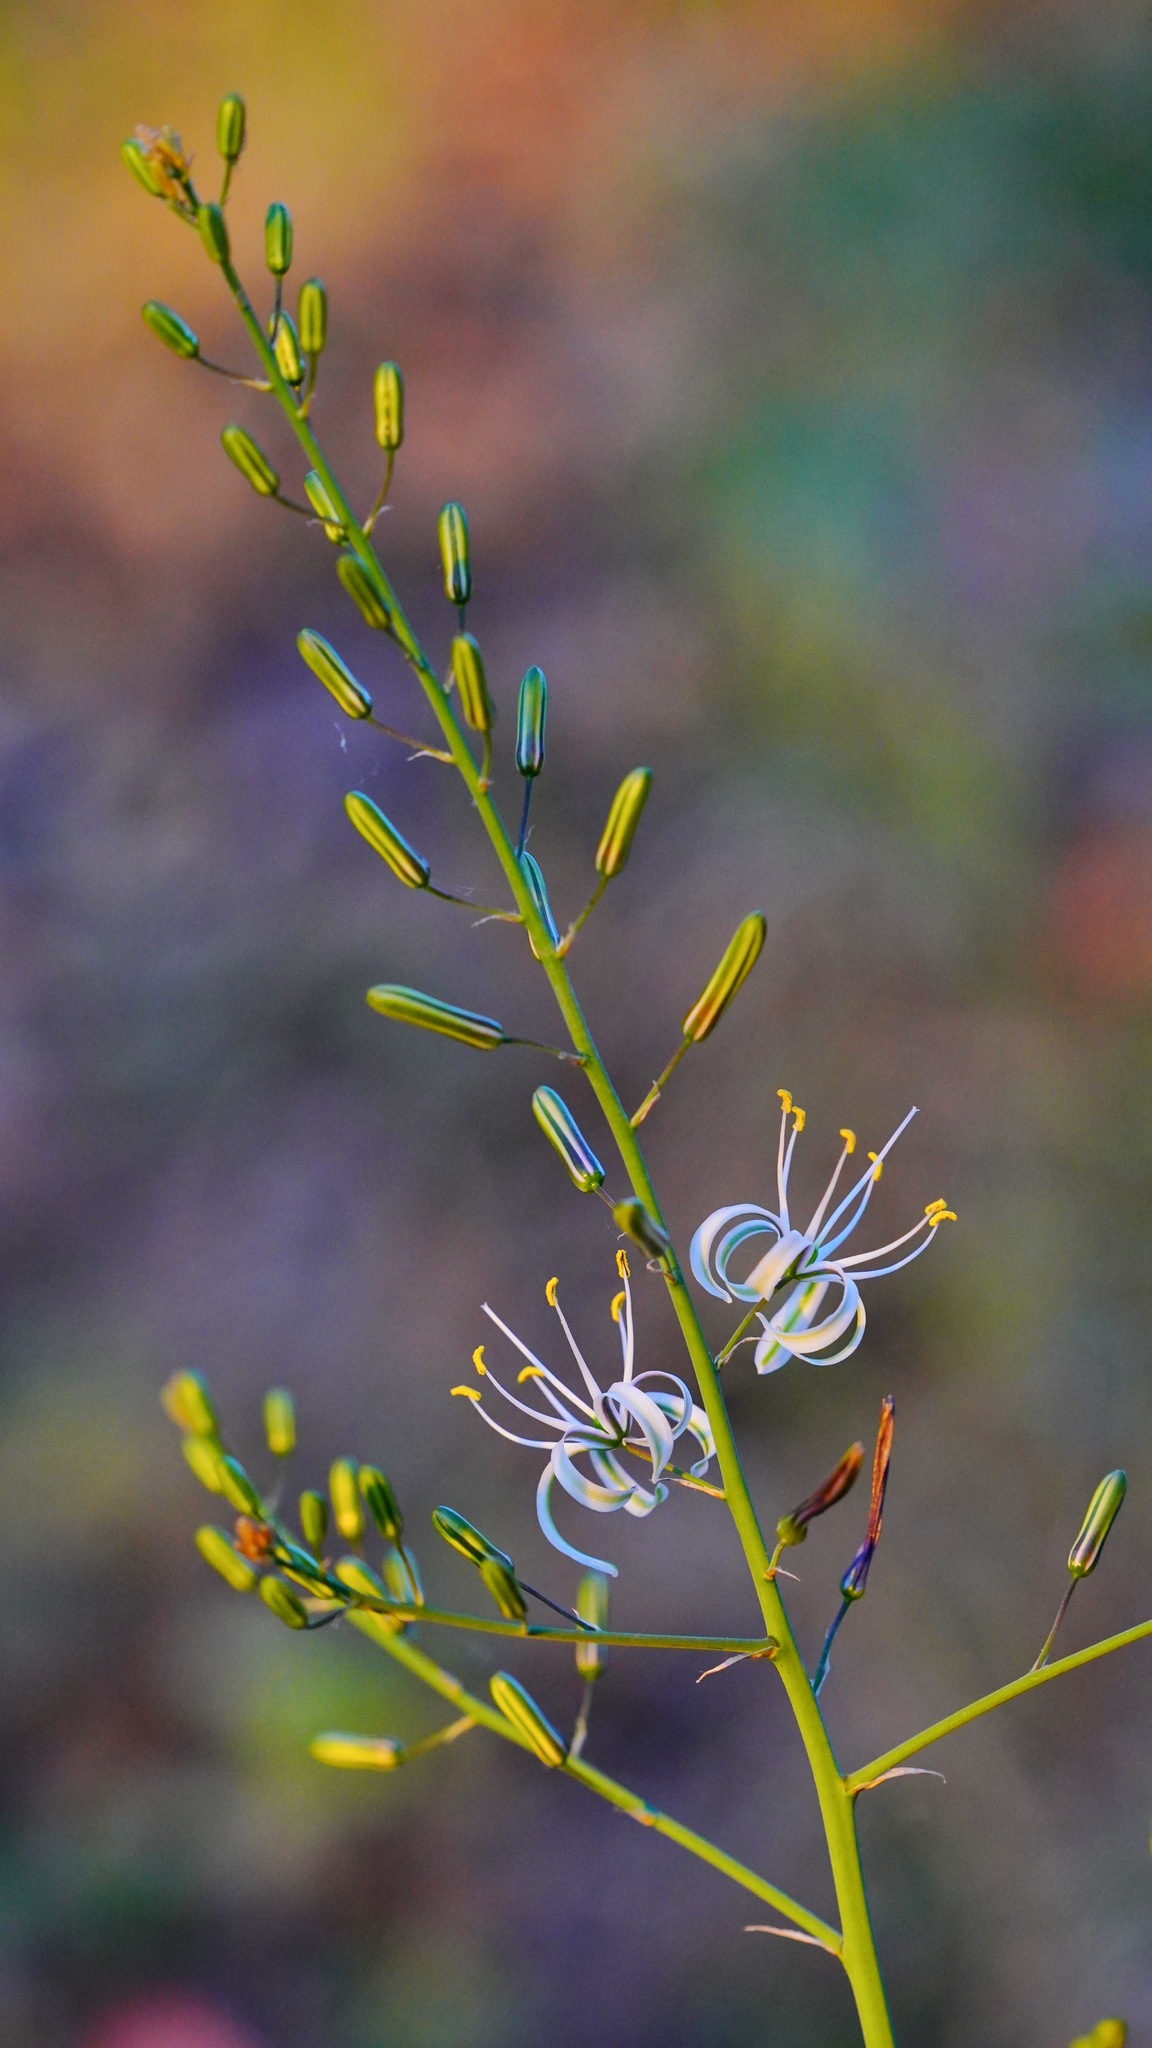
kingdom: Plantae
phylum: Tracheophyta
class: Liliopsida
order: Asparagales
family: Asparagaceae
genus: Chlorogalum
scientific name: Chlorogalum pomeridianum
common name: Amole
